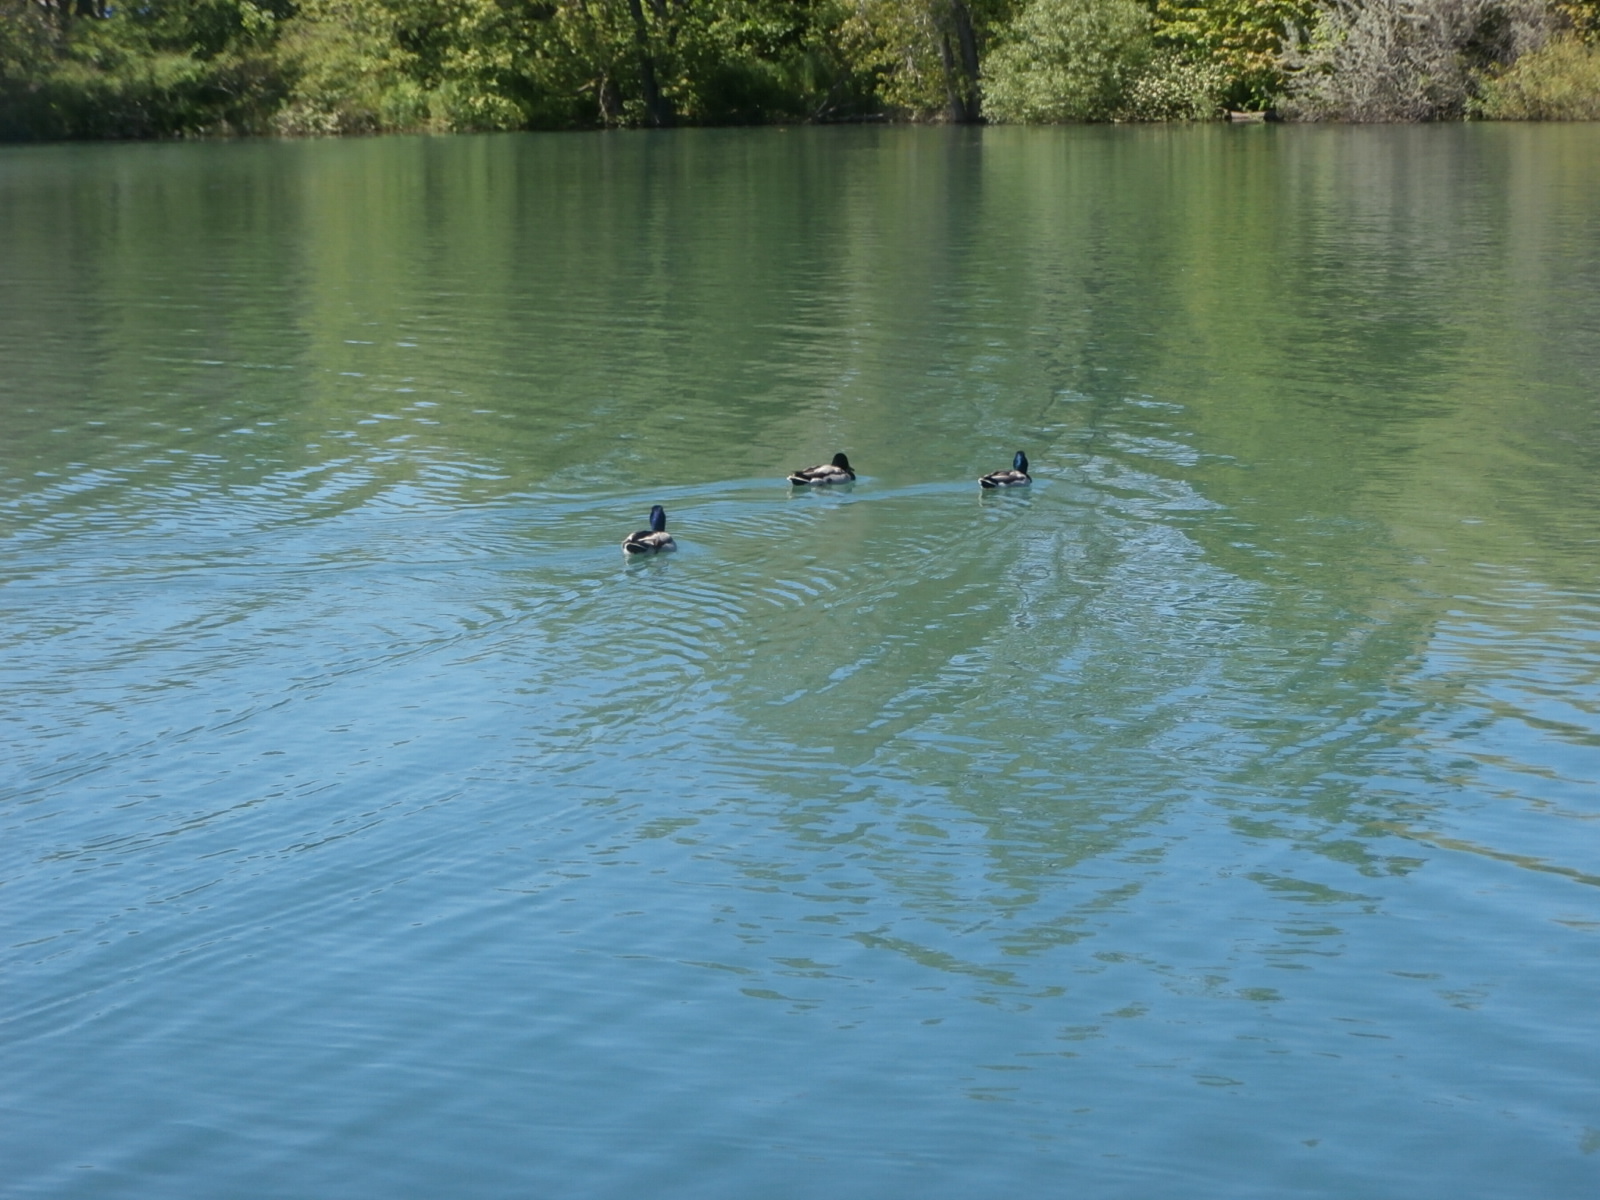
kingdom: Animalia
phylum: Chordata
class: Aves
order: Anseriformes
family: Anatidae
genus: Anas
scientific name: Anas platyrhynchos
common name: Mallard
